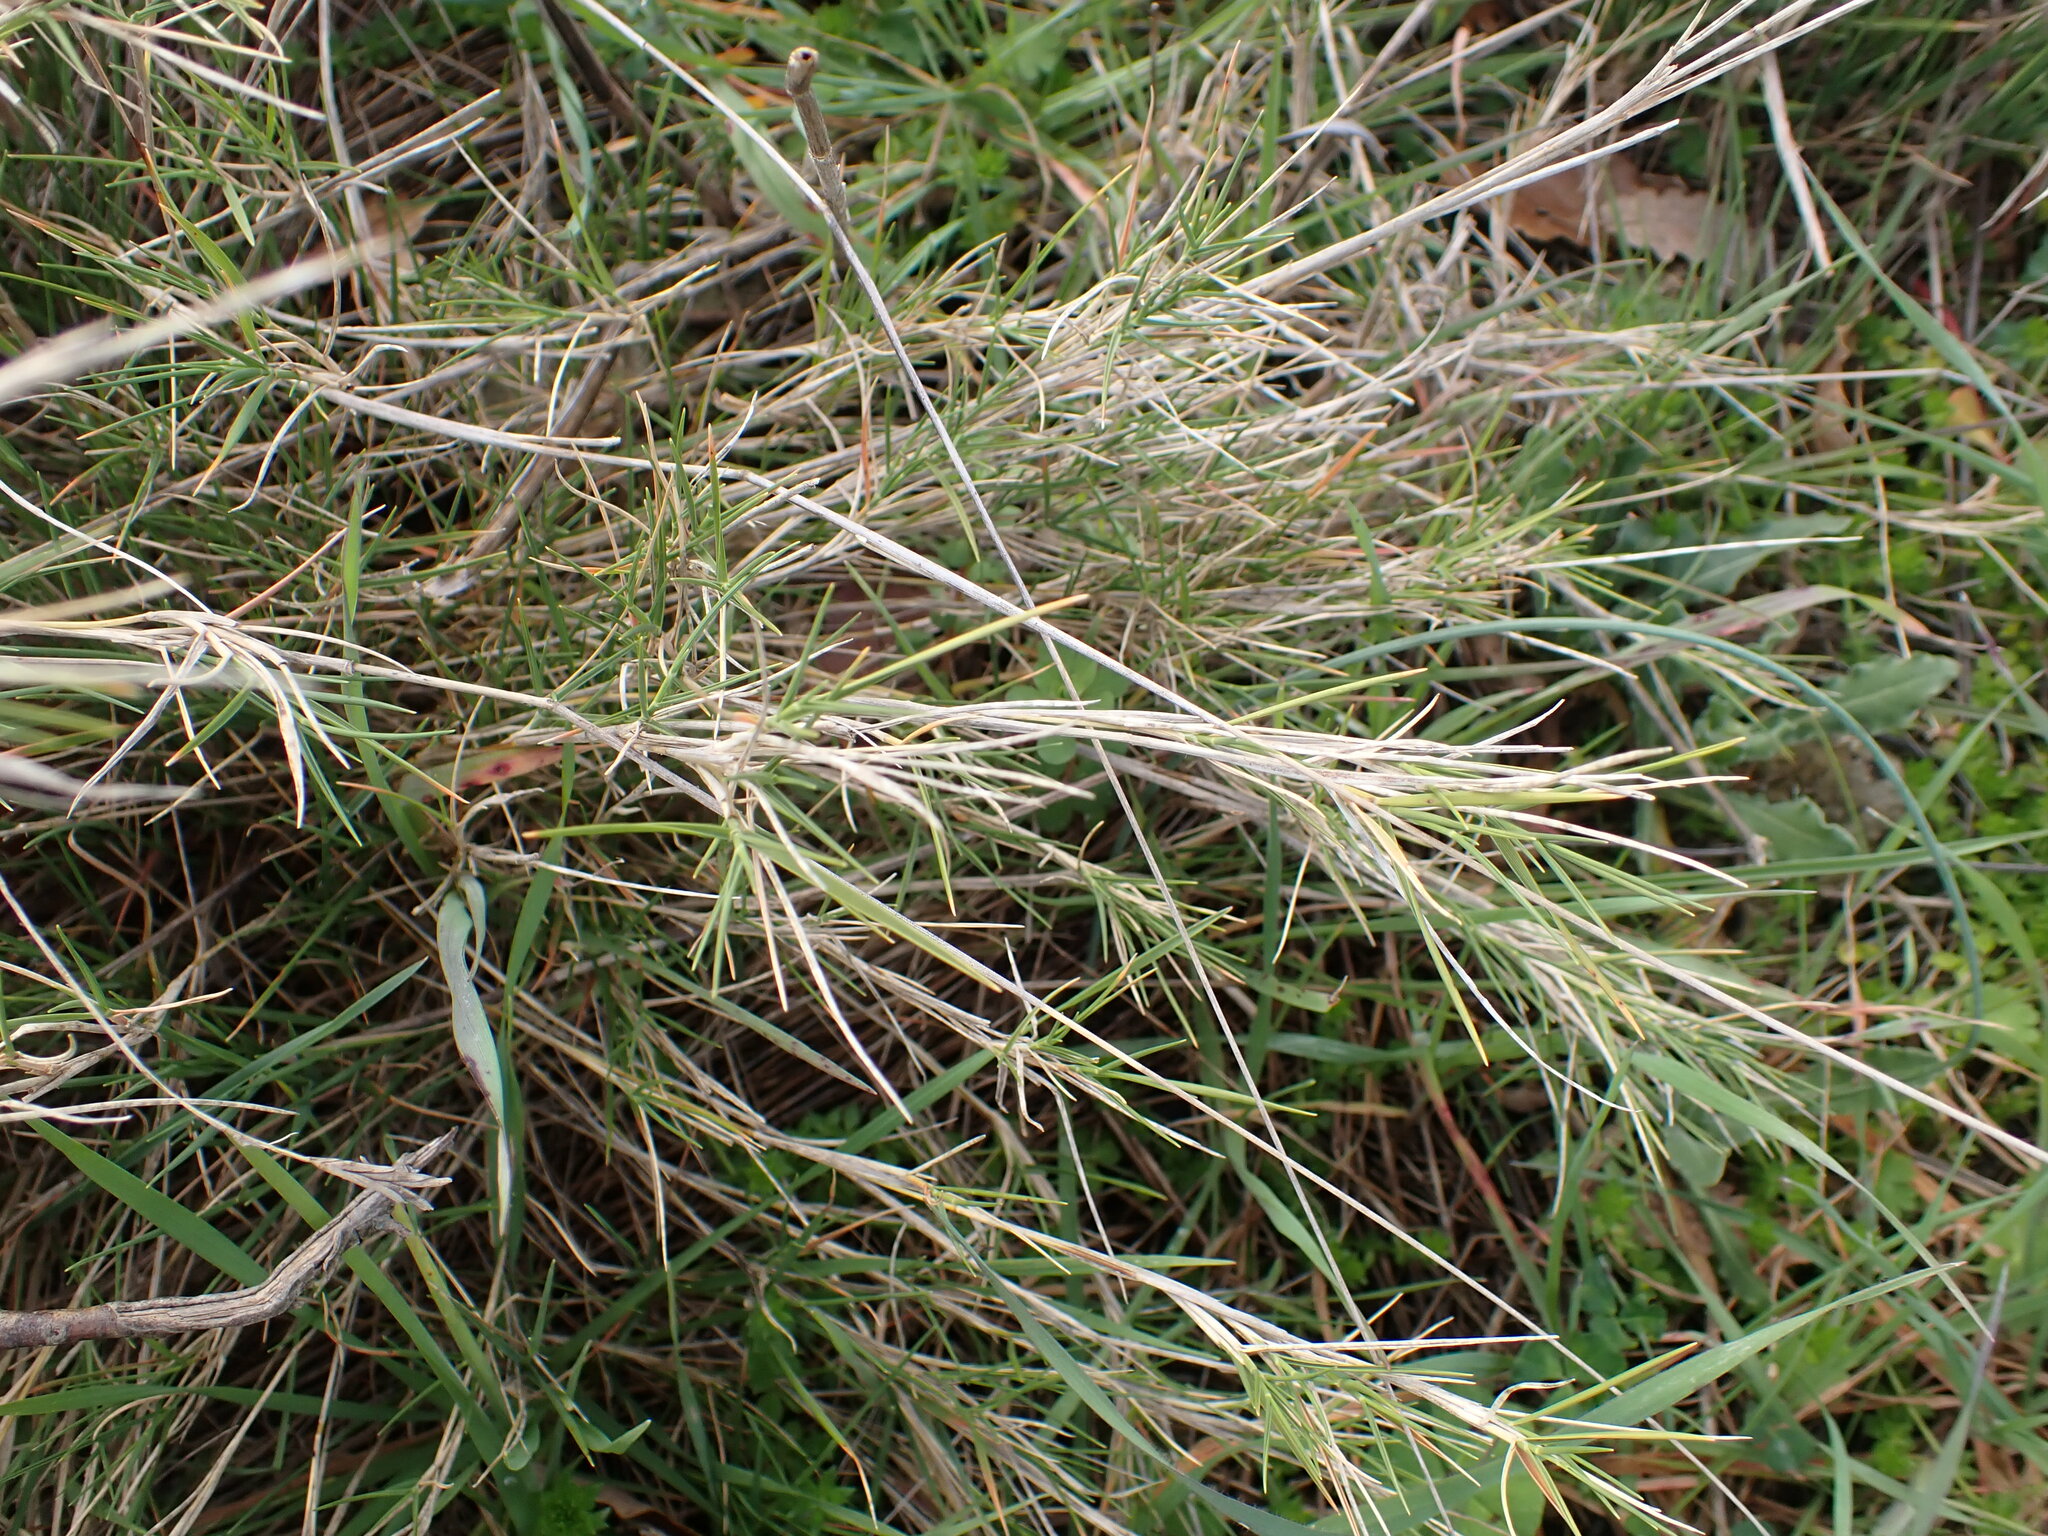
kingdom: Plantae
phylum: Tracheophyta
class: Liliopsida
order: Poales
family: Poaceae
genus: Brachypodium
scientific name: Brachypodium retusum
